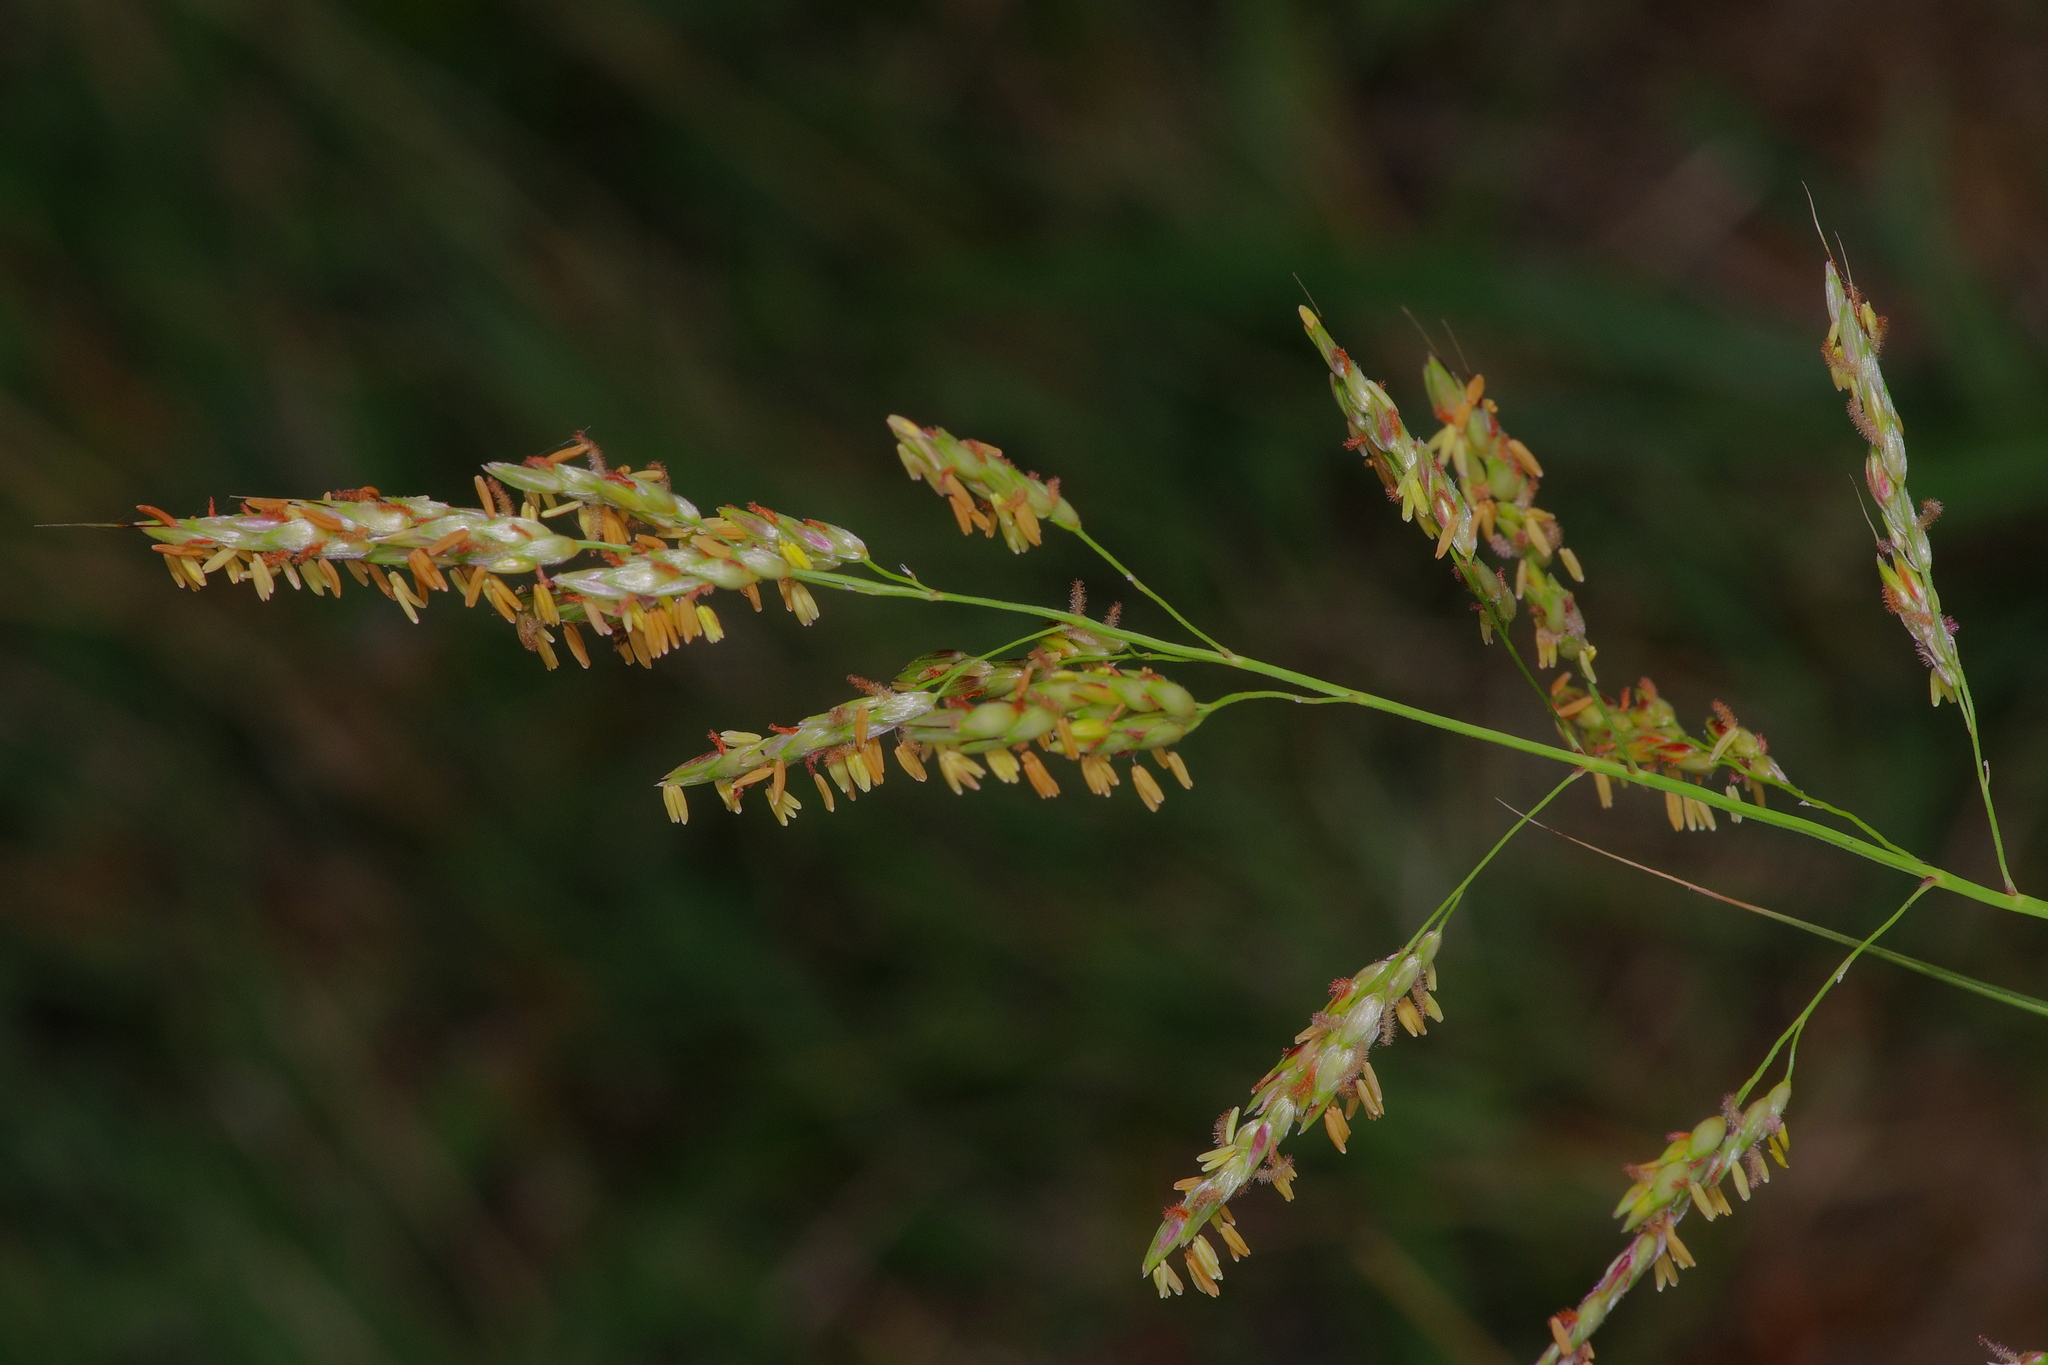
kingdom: Plantae
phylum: Tracheophyta
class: Liliopsida
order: Poales
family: Poaceae
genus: Sorghum
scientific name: Sorghum halepense
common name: Johnson-grass
